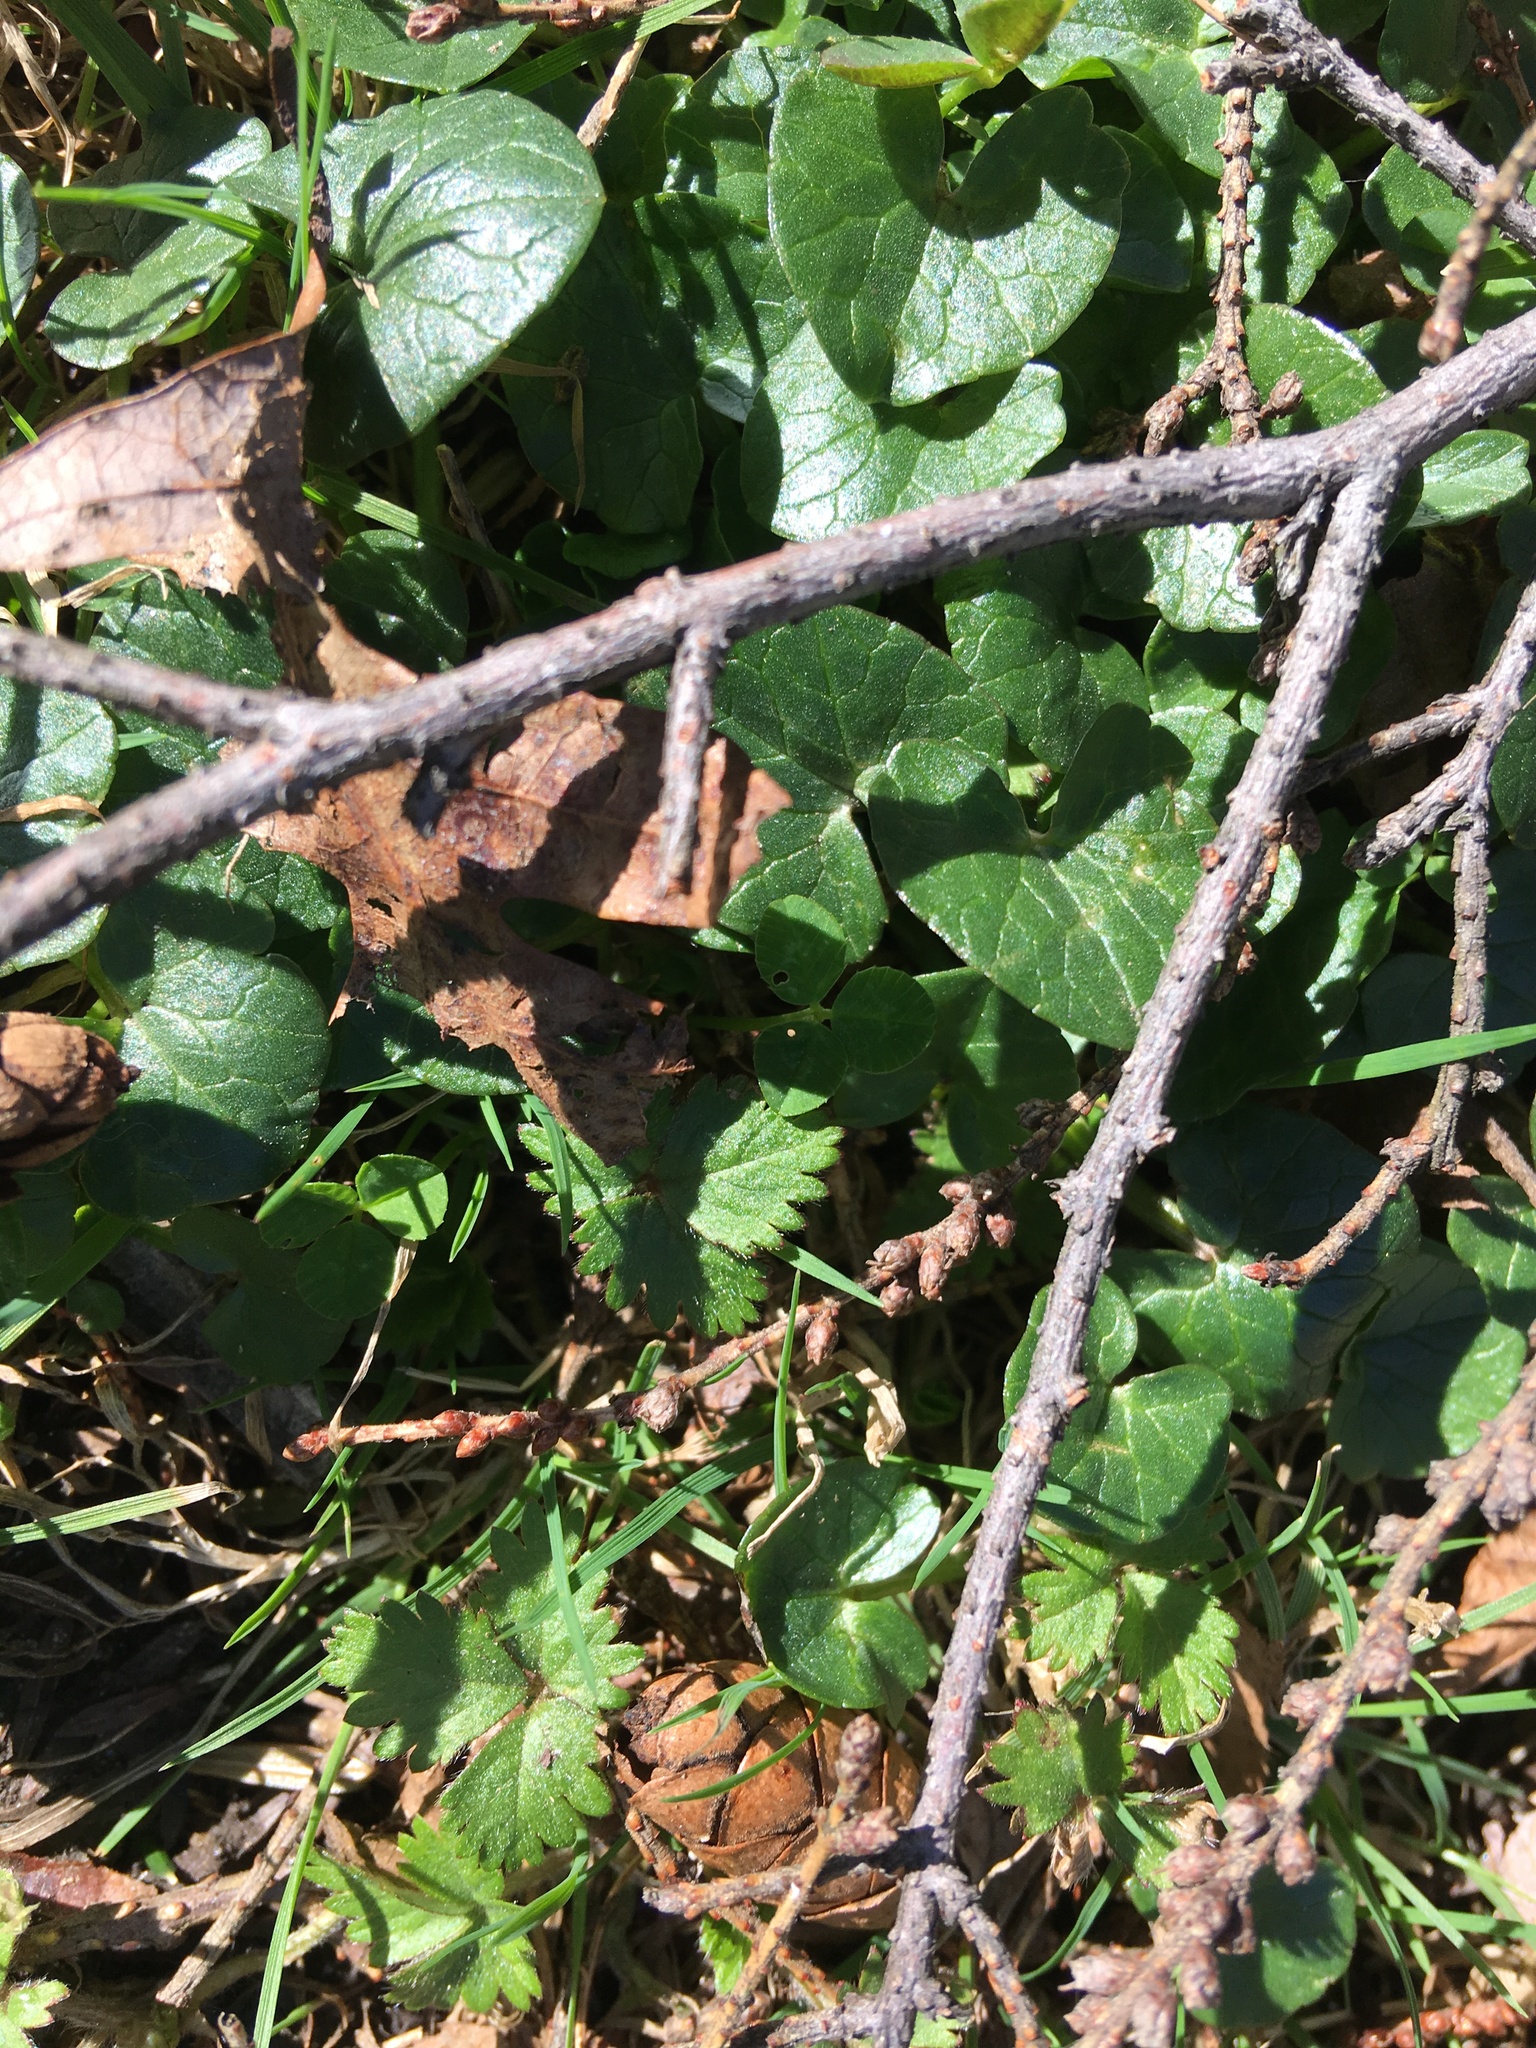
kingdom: Plantae
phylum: Tracheophyta
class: Magnoliopsida
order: Ranunculales
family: Ranunculaceae
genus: Ficaria
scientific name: Ficaria verna
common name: Lesser celandine
